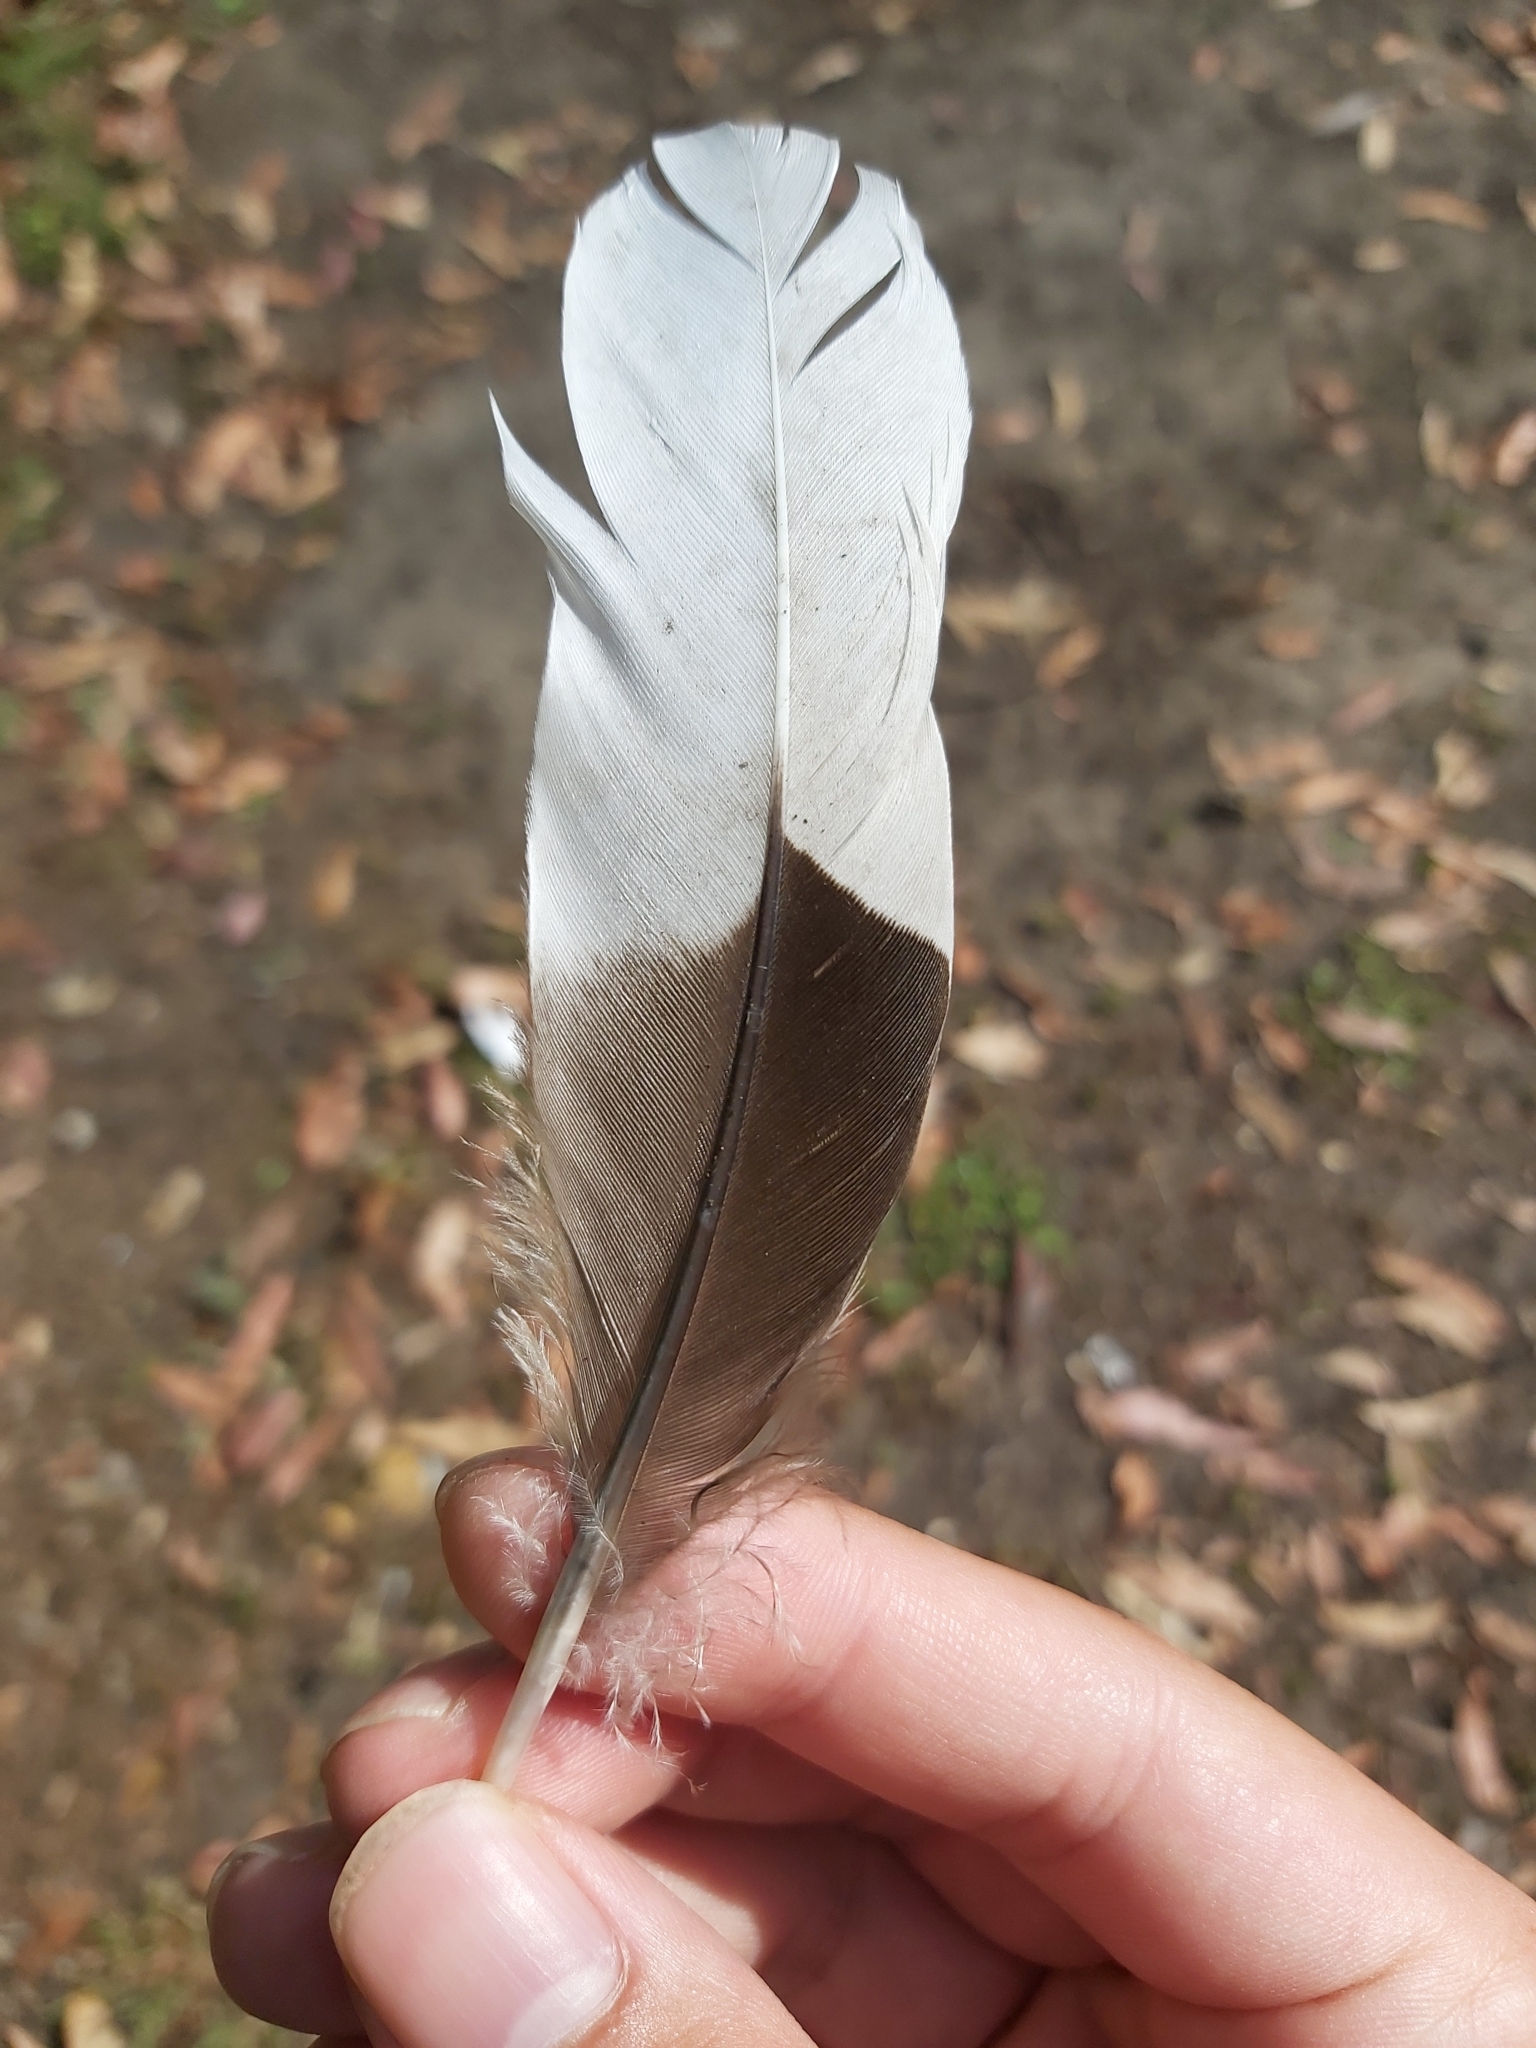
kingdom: Animalia
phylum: Chordata
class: Aves
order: Anseriformes
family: Anatidae
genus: Chenonetta
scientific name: Chenonetta jubata
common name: Maned duck
